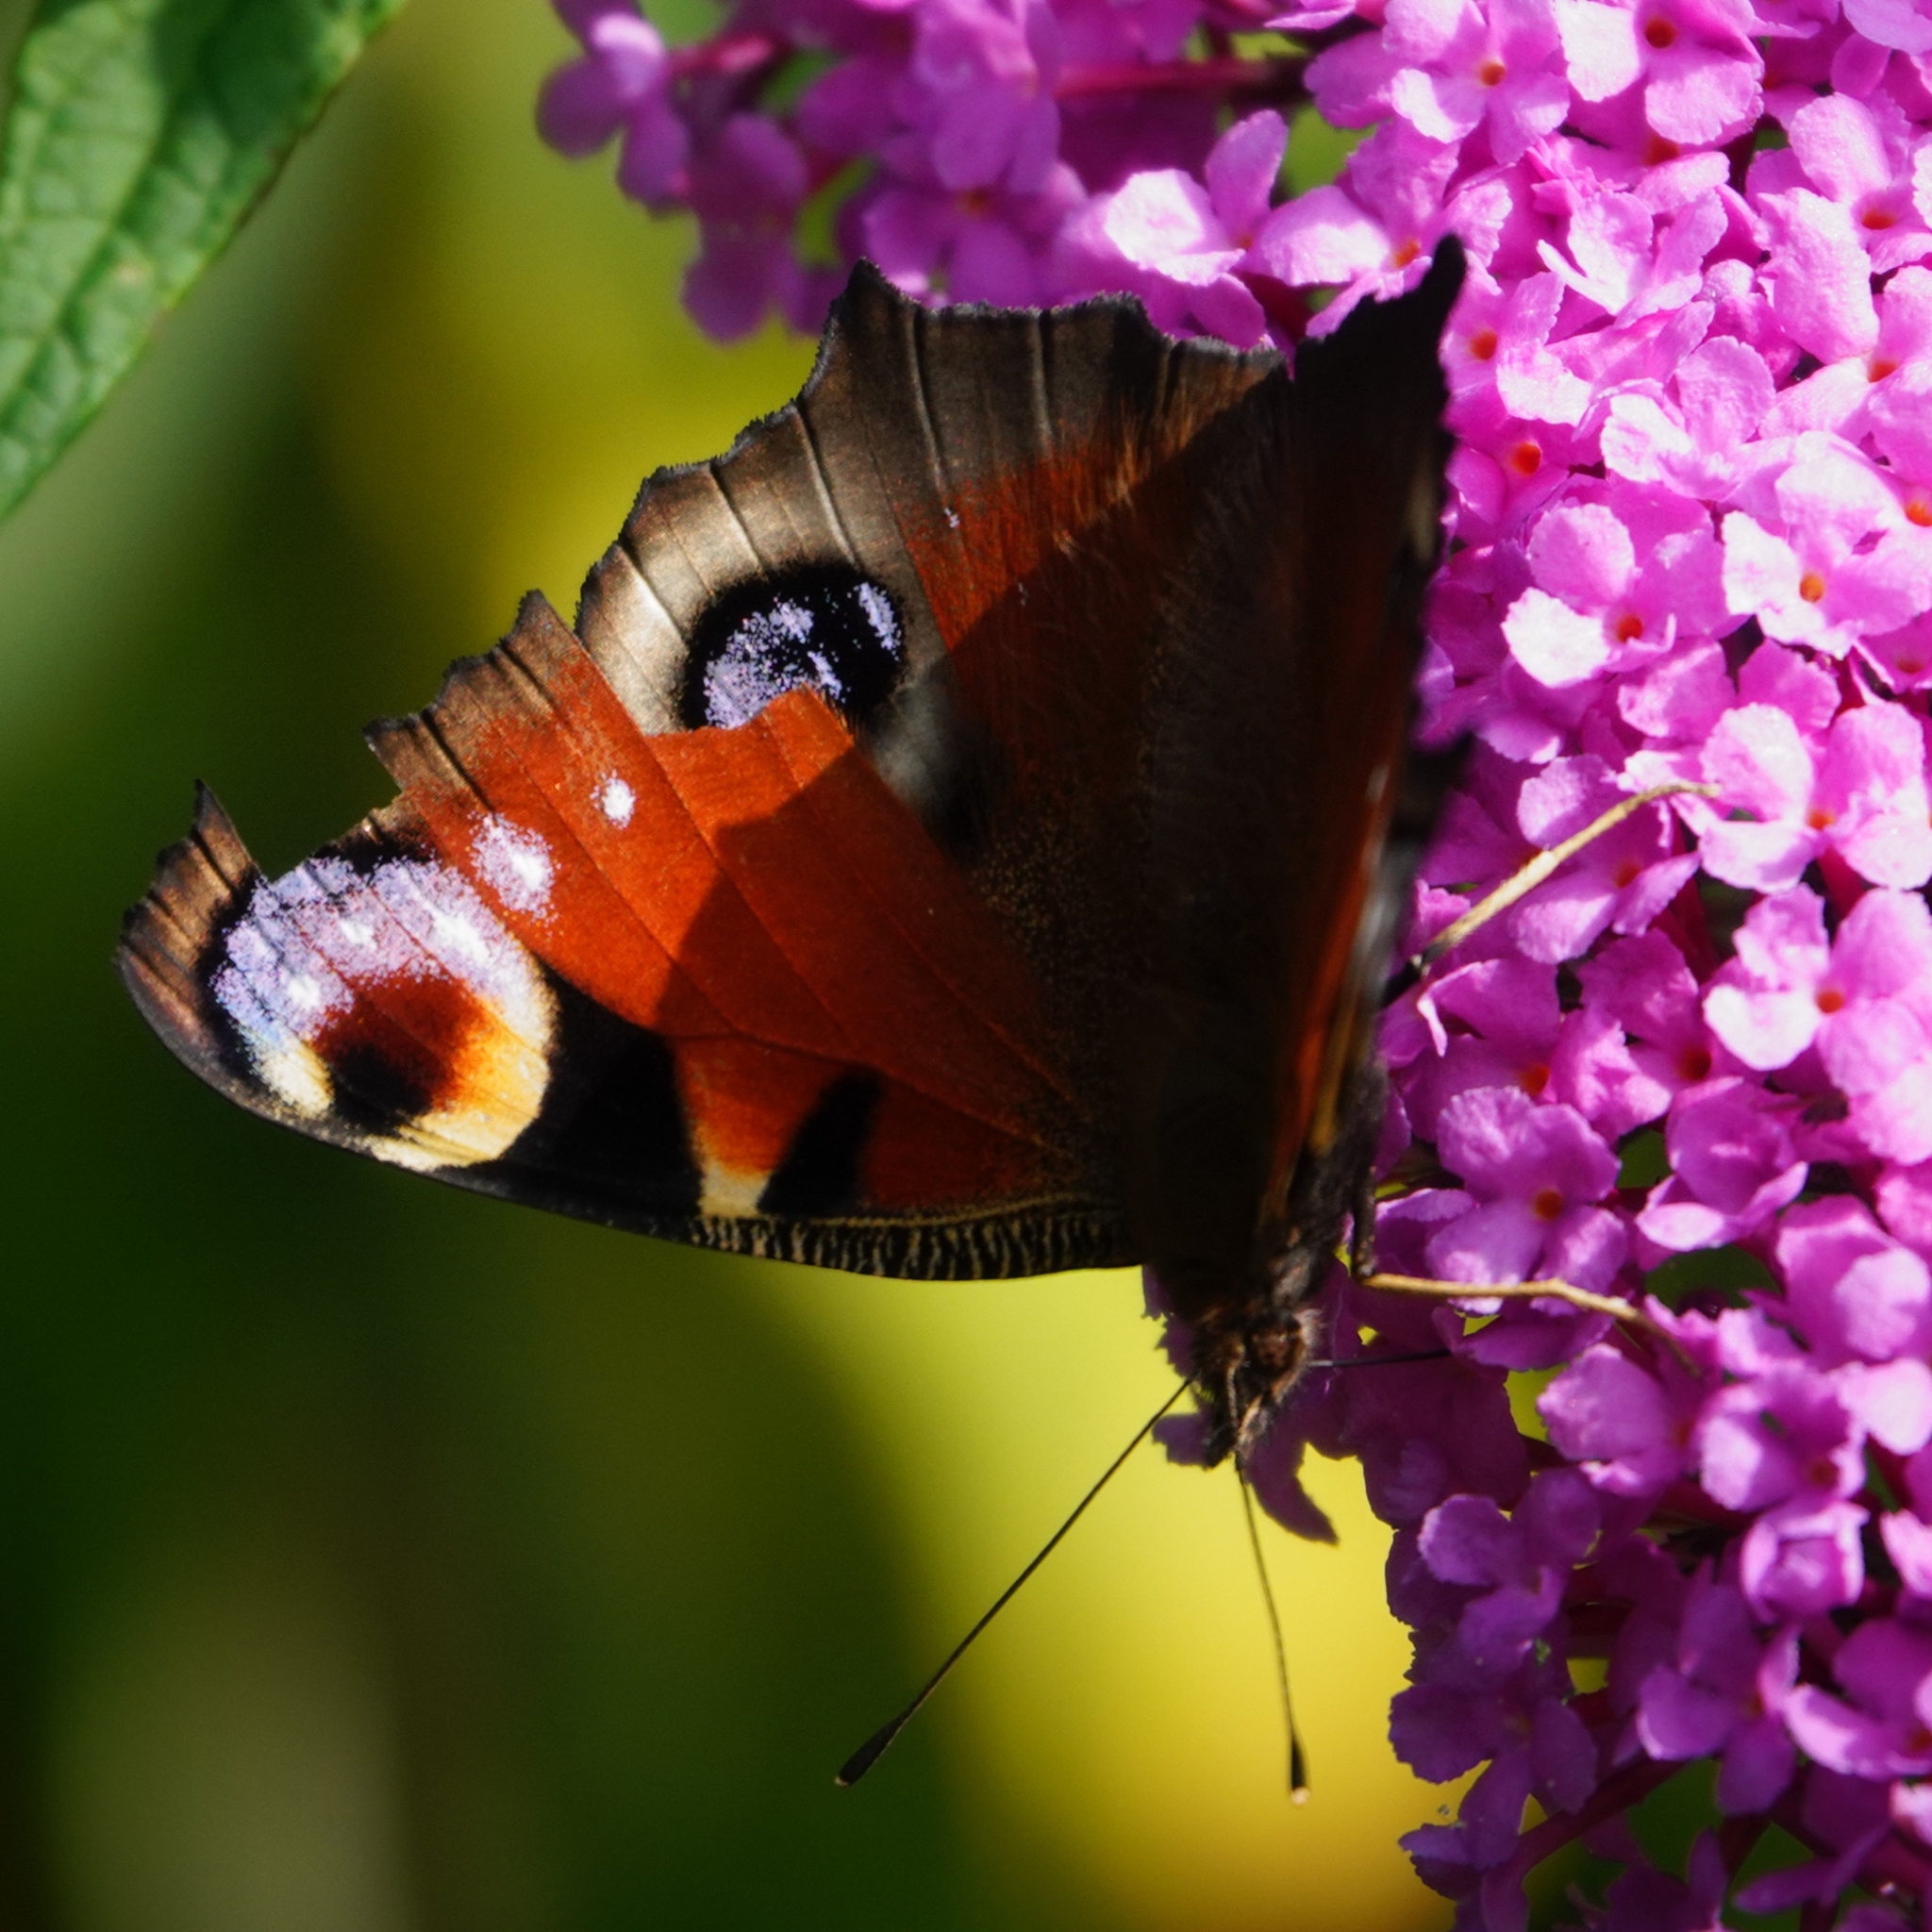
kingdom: Animalia
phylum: Arthropoda
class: Insecta
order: Lepidoptera
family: Nymphalidae
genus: Aglais
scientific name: Aglais io
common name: Peacock
